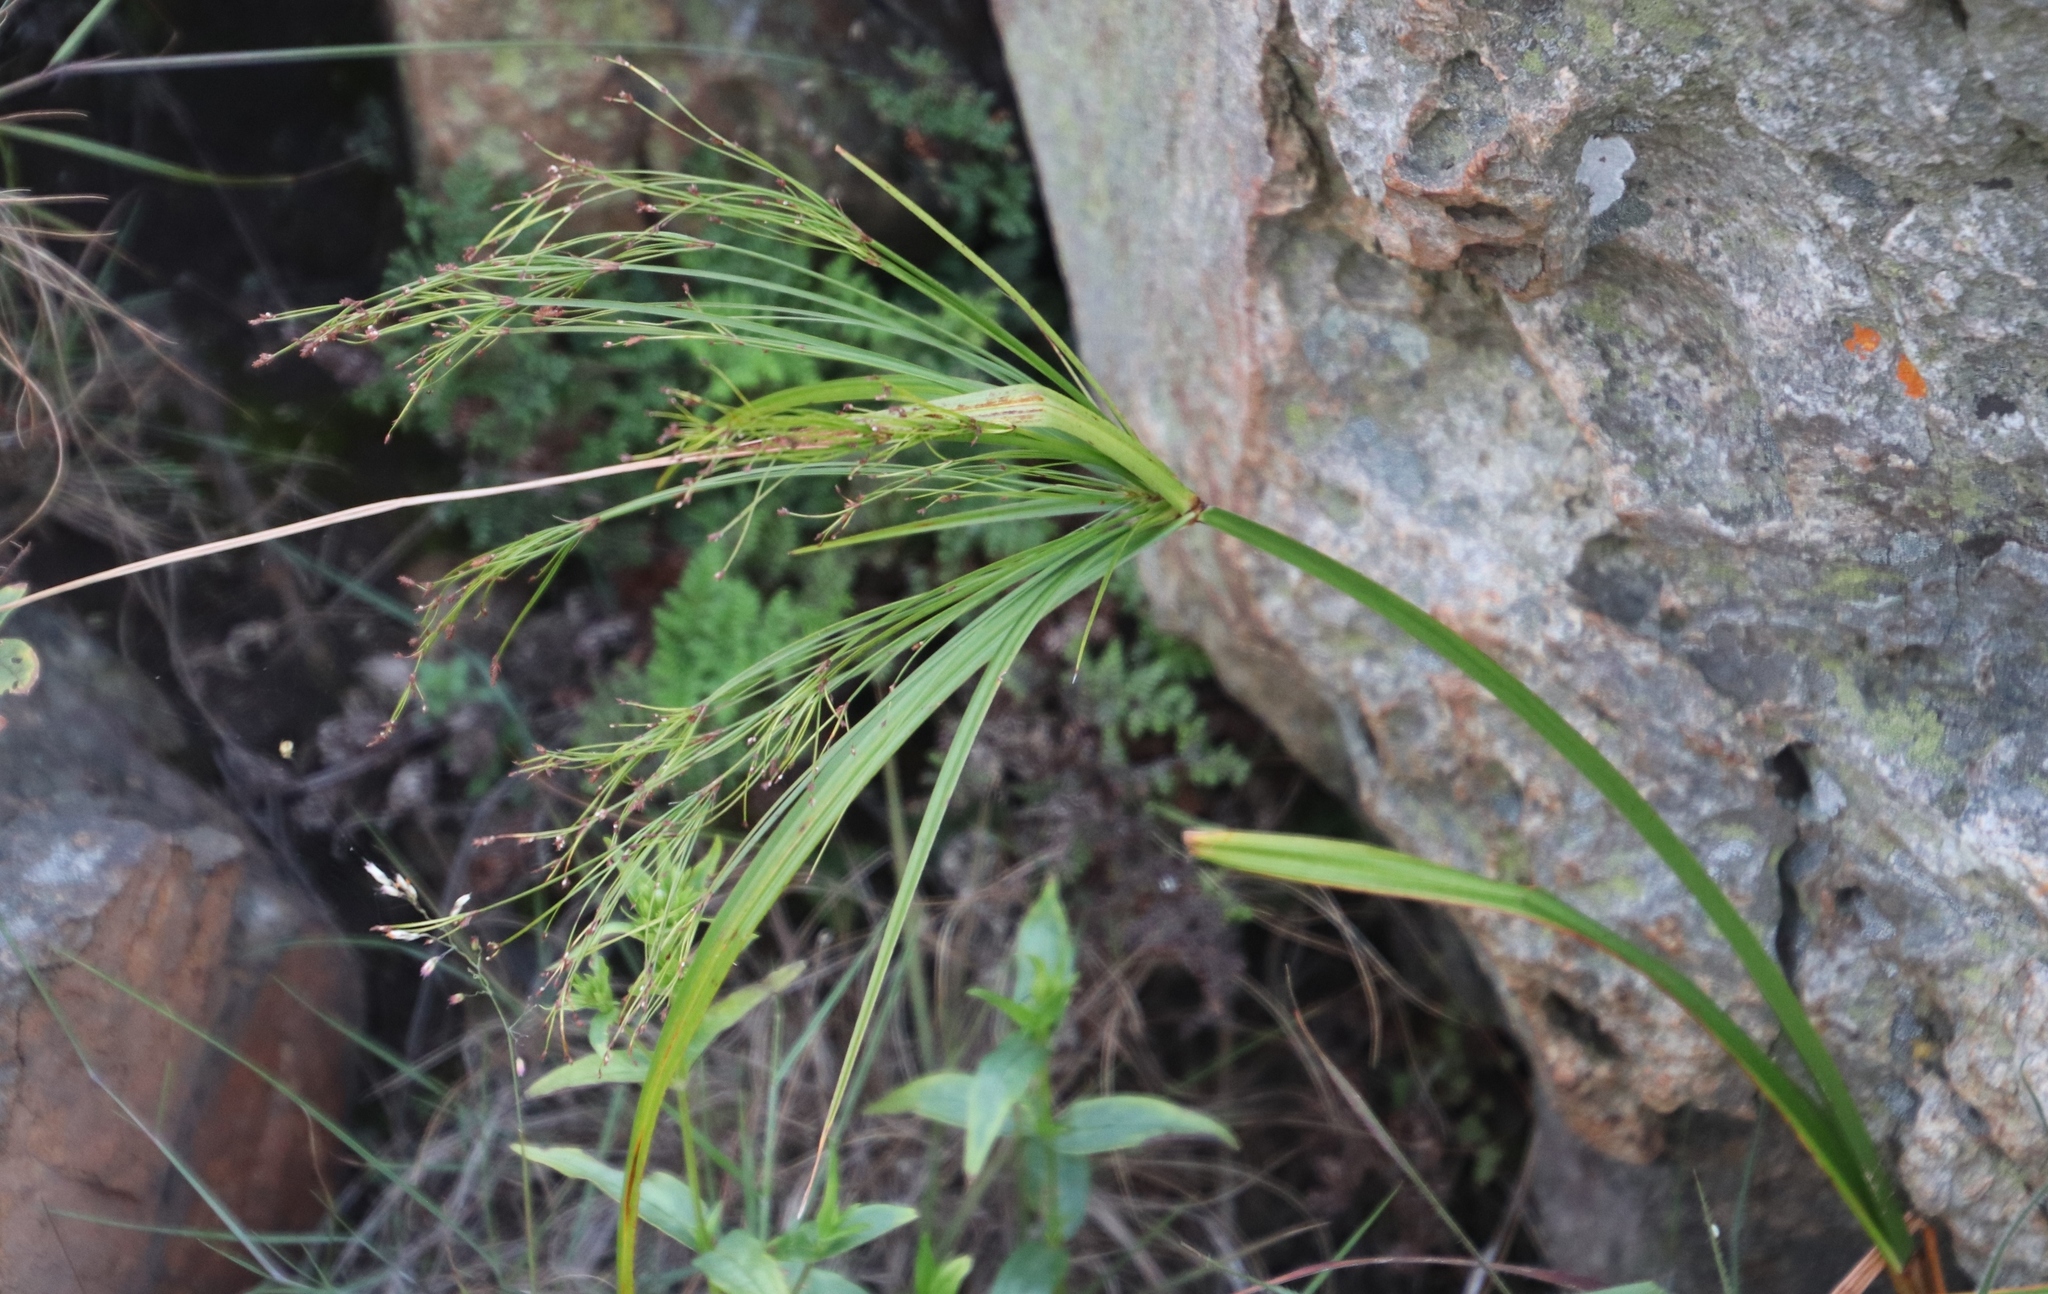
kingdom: Plantae
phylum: Tracheophyta
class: Liliopsida
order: Poales
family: Cyperaceae
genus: Cyperus
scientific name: Cyperus leptocladus
